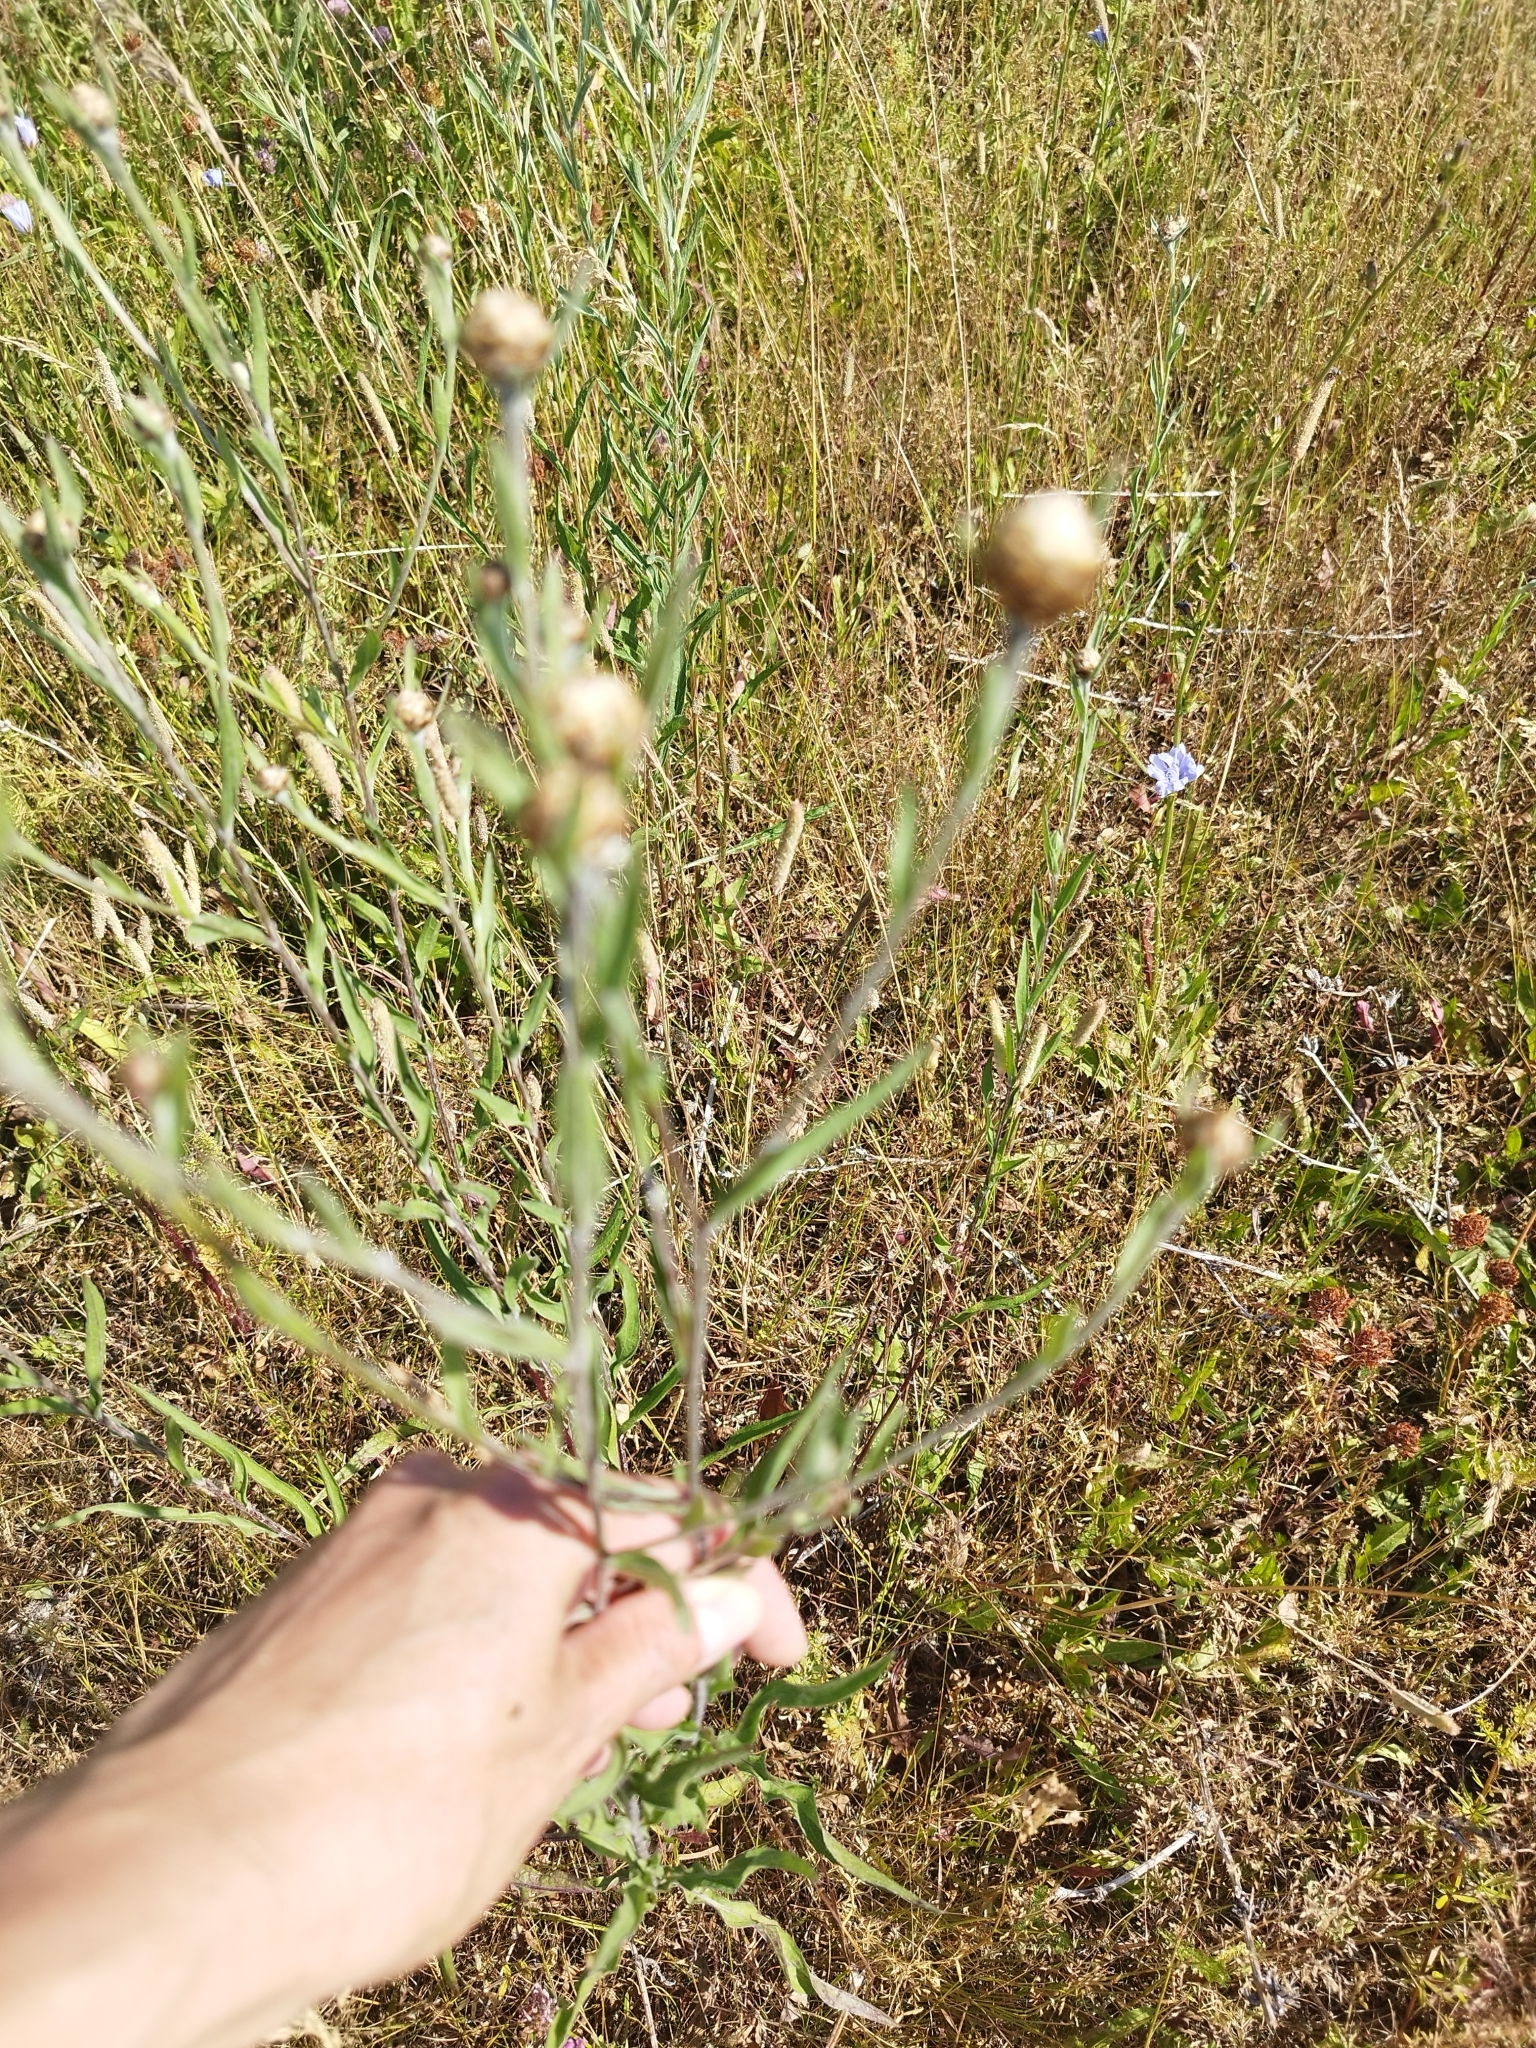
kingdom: Plantae
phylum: Tracheophyta
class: Magnoliopsida
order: Asterales
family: Asteraceae
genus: Centaurea
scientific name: Centaurea jacea
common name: Brown knapweed
